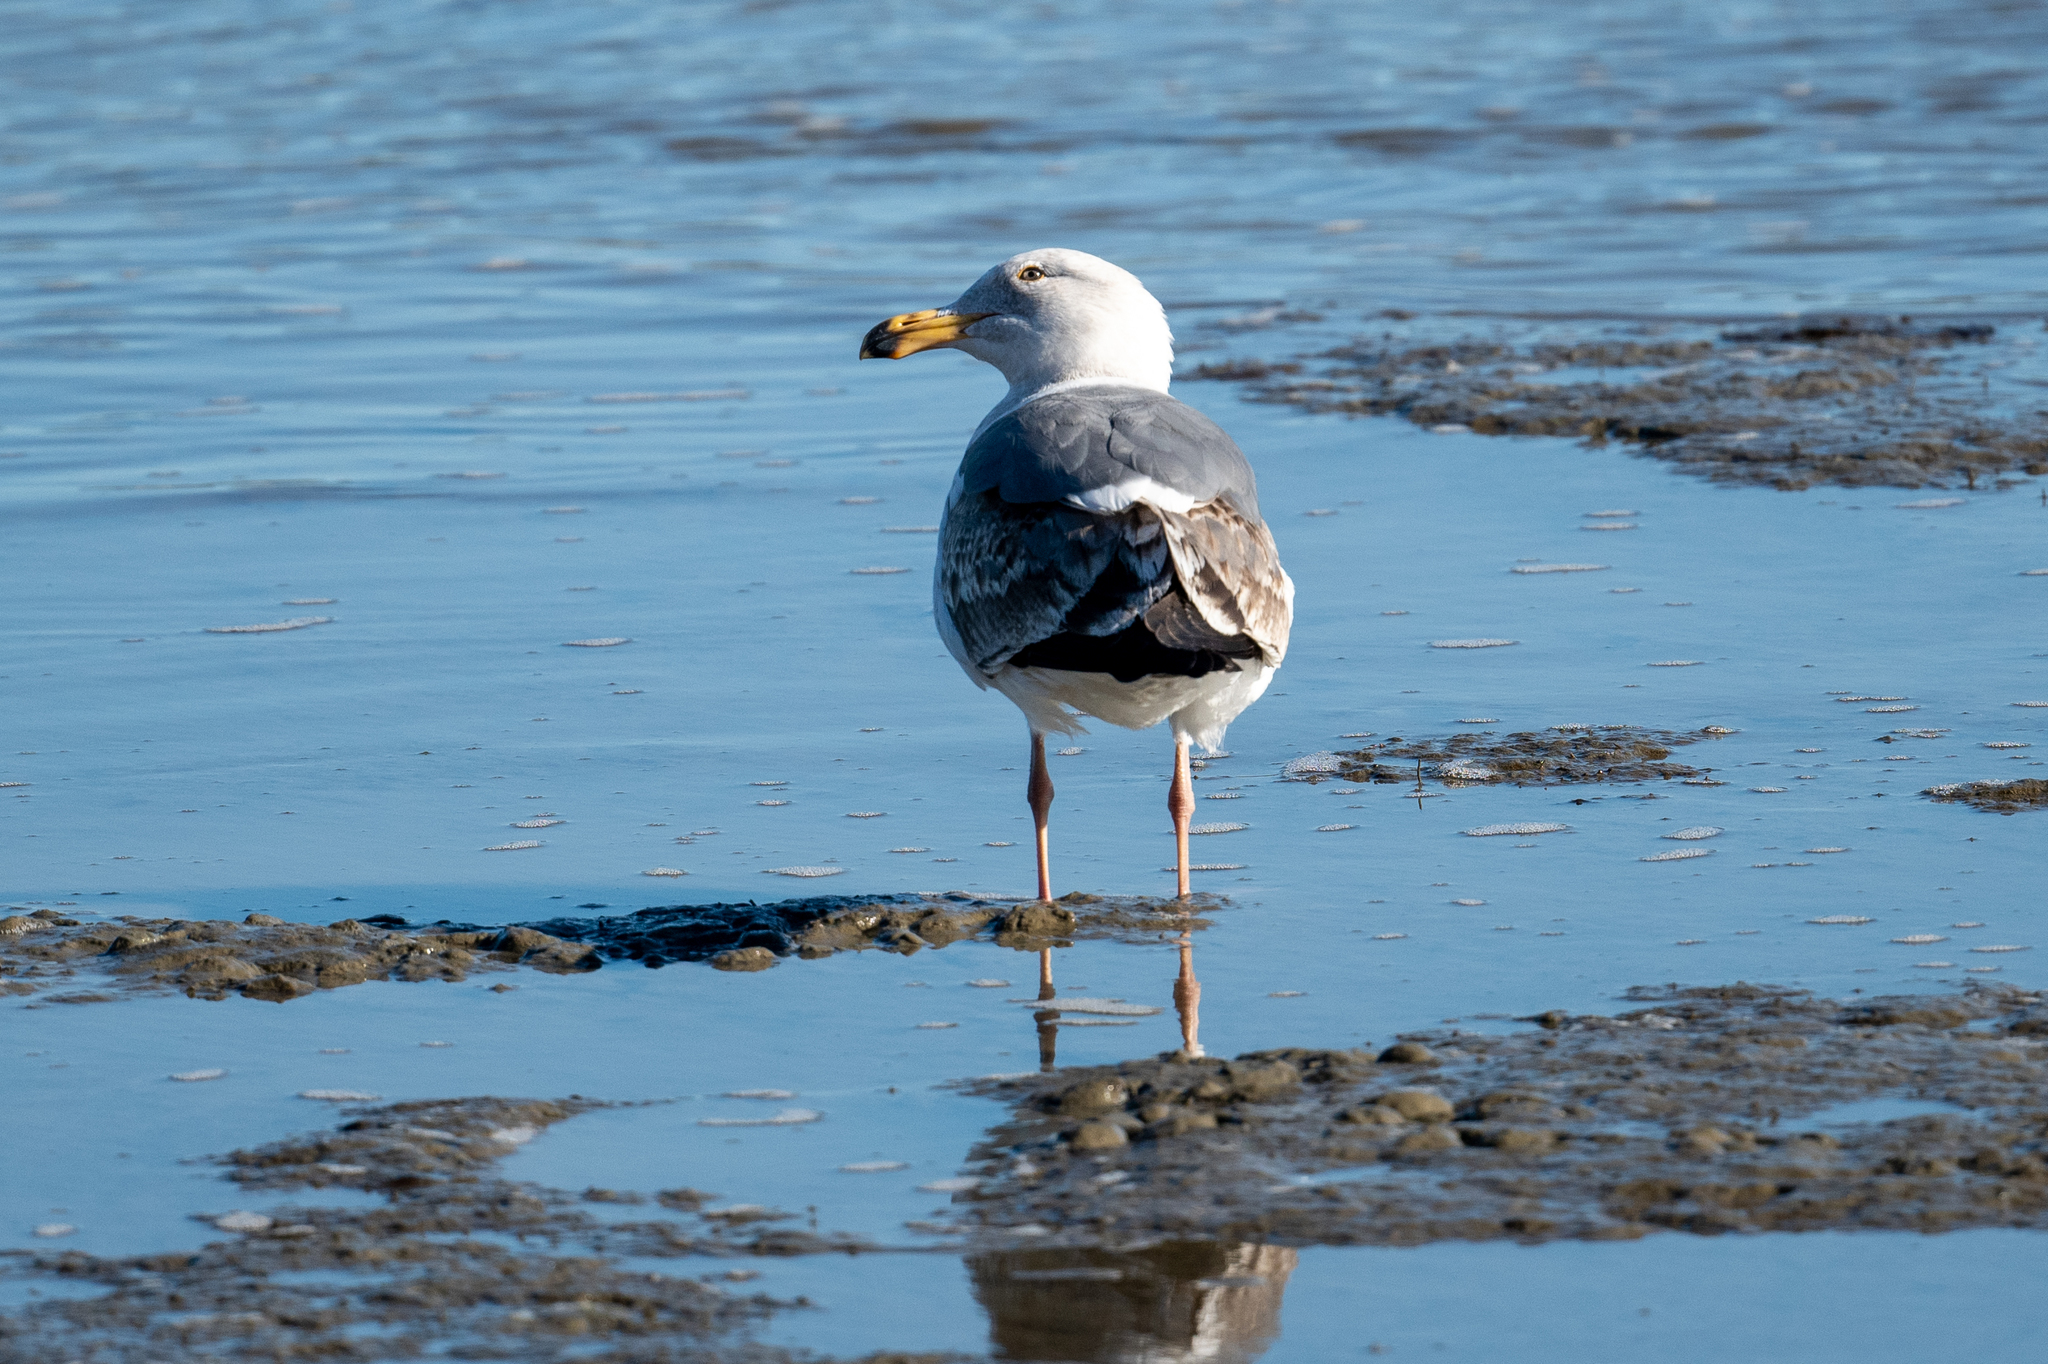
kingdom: Animalia
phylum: Chordata
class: Aves
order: Charadriiformes
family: Laridae
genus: Larus
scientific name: Larus occidentalis
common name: Western gull
